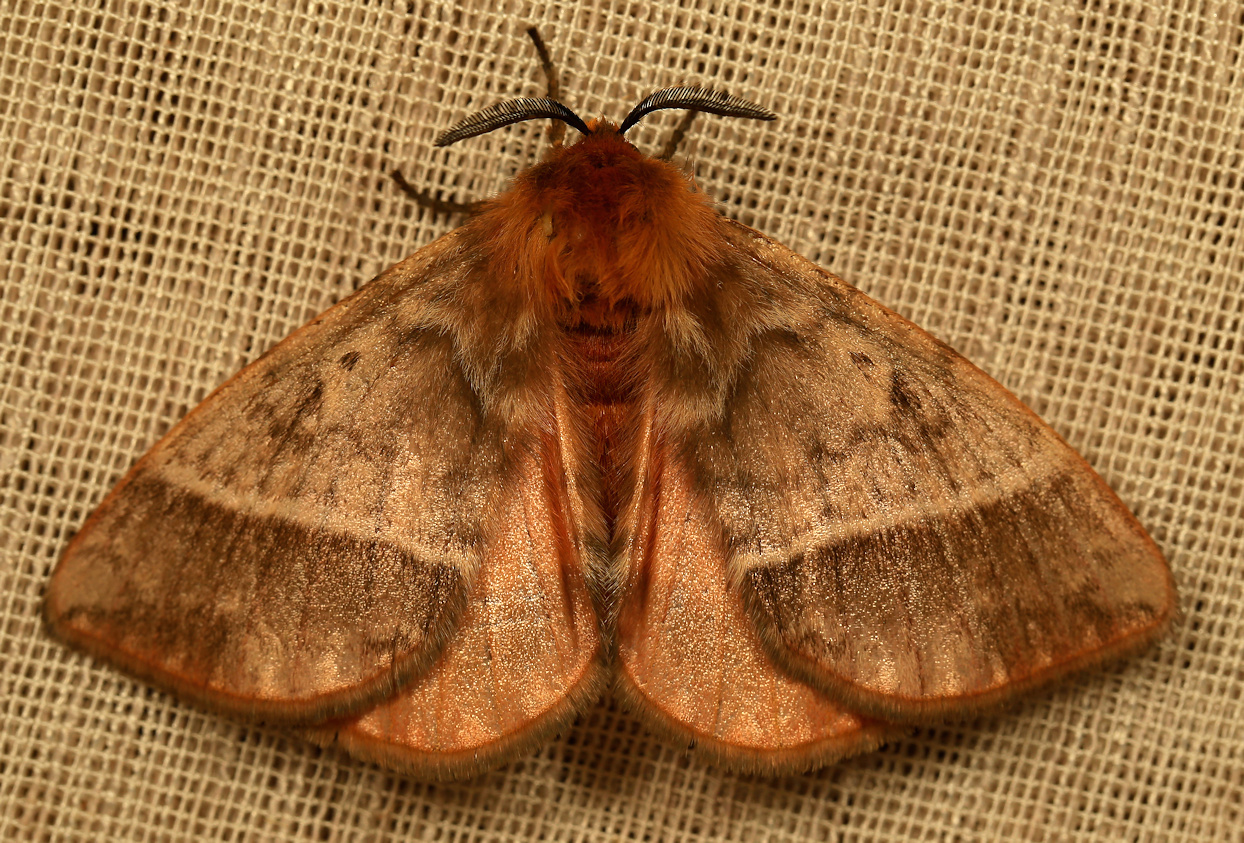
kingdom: Animalia
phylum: Arthropoda
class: Insecta
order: Lepidoptera
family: Eupterotidae
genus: Hemijana
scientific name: Hemijana
